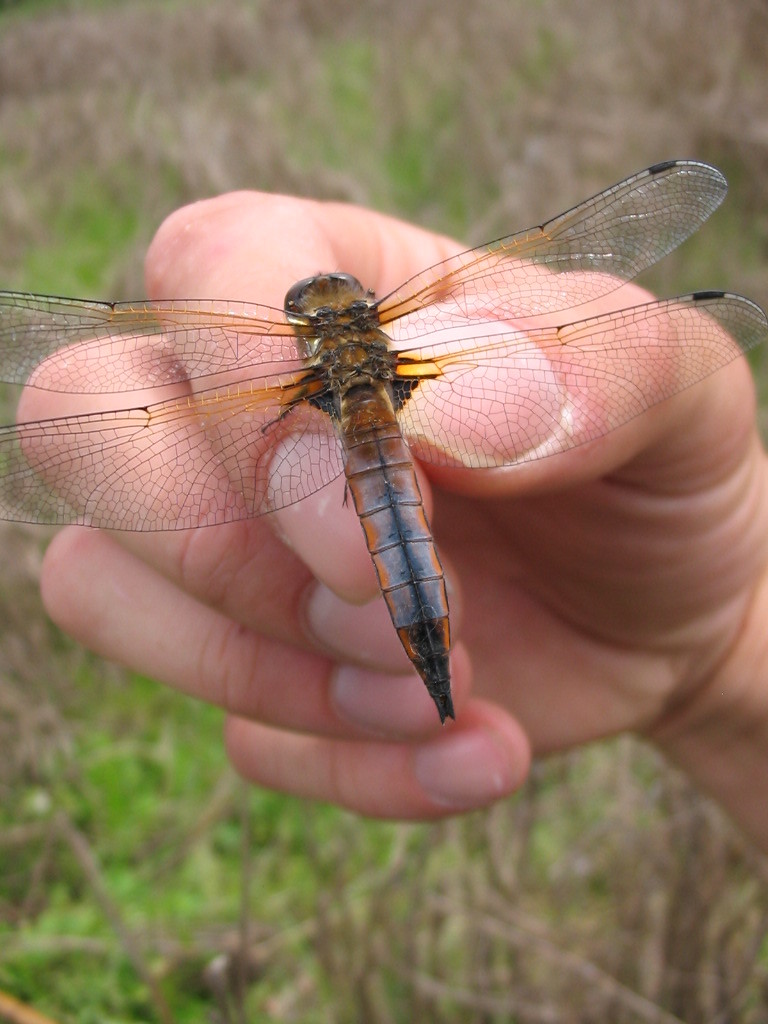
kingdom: Animalia
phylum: Arthropoda
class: Insecta
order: Odonata
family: Libellulidae
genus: Libellula
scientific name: Libellula fulva
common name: Blue chaser
